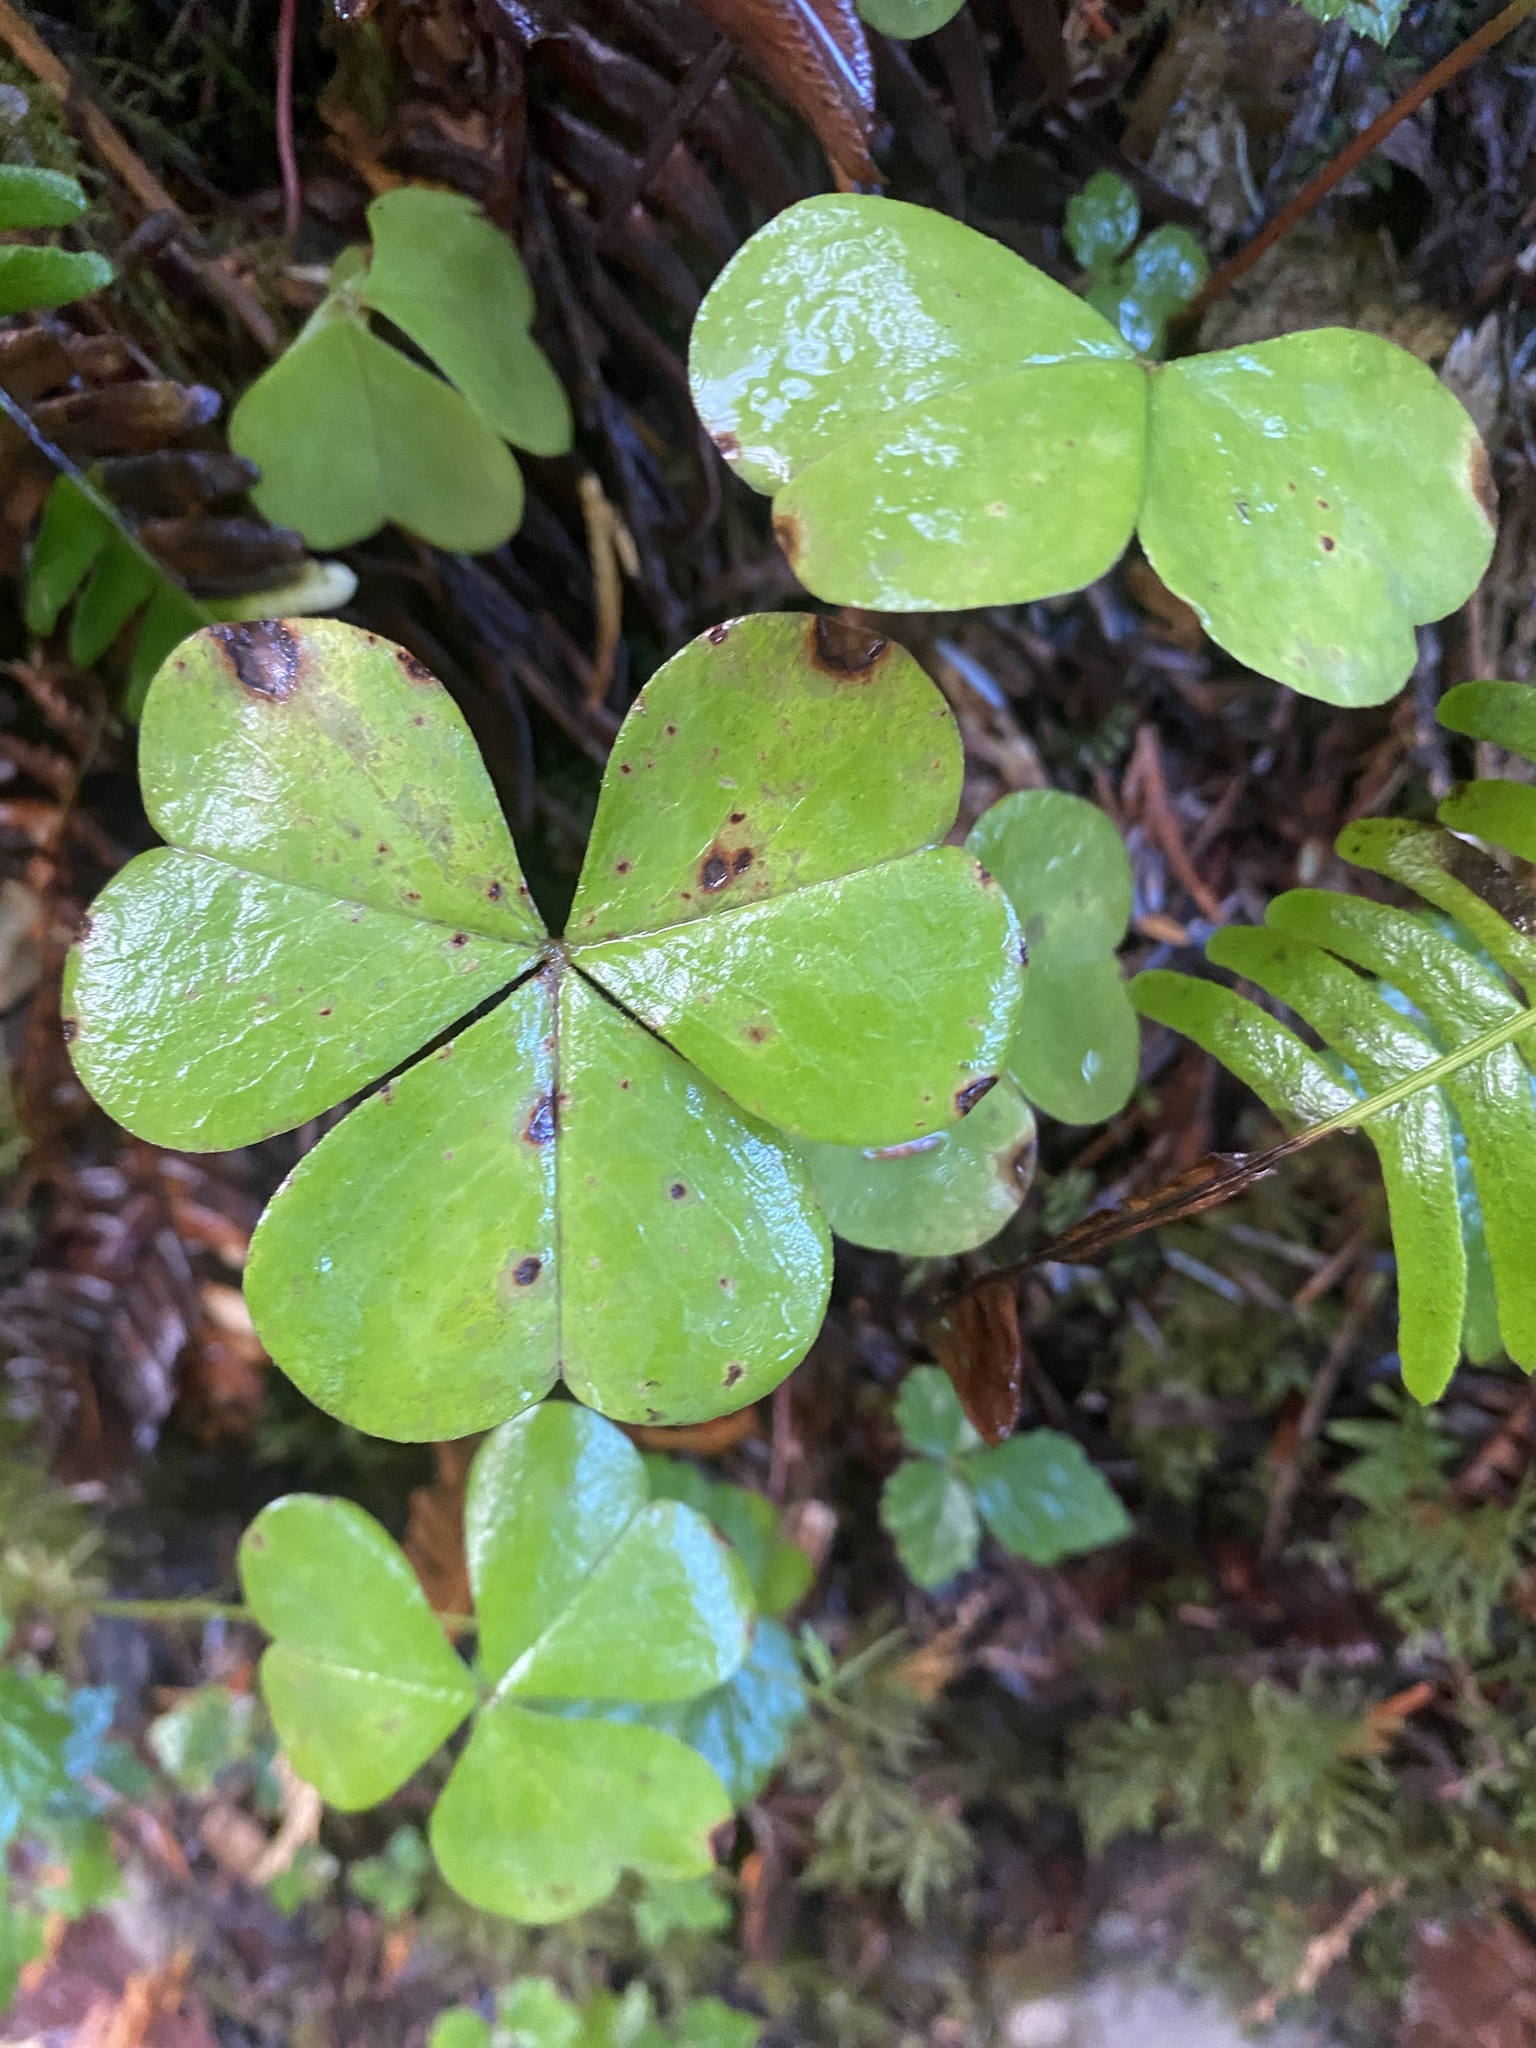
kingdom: Plantae
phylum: Tracheophyta
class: Magnoliopsida
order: Oxalidales
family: Oxalidaceae
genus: Oxalis
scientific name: Oxalis oregana
